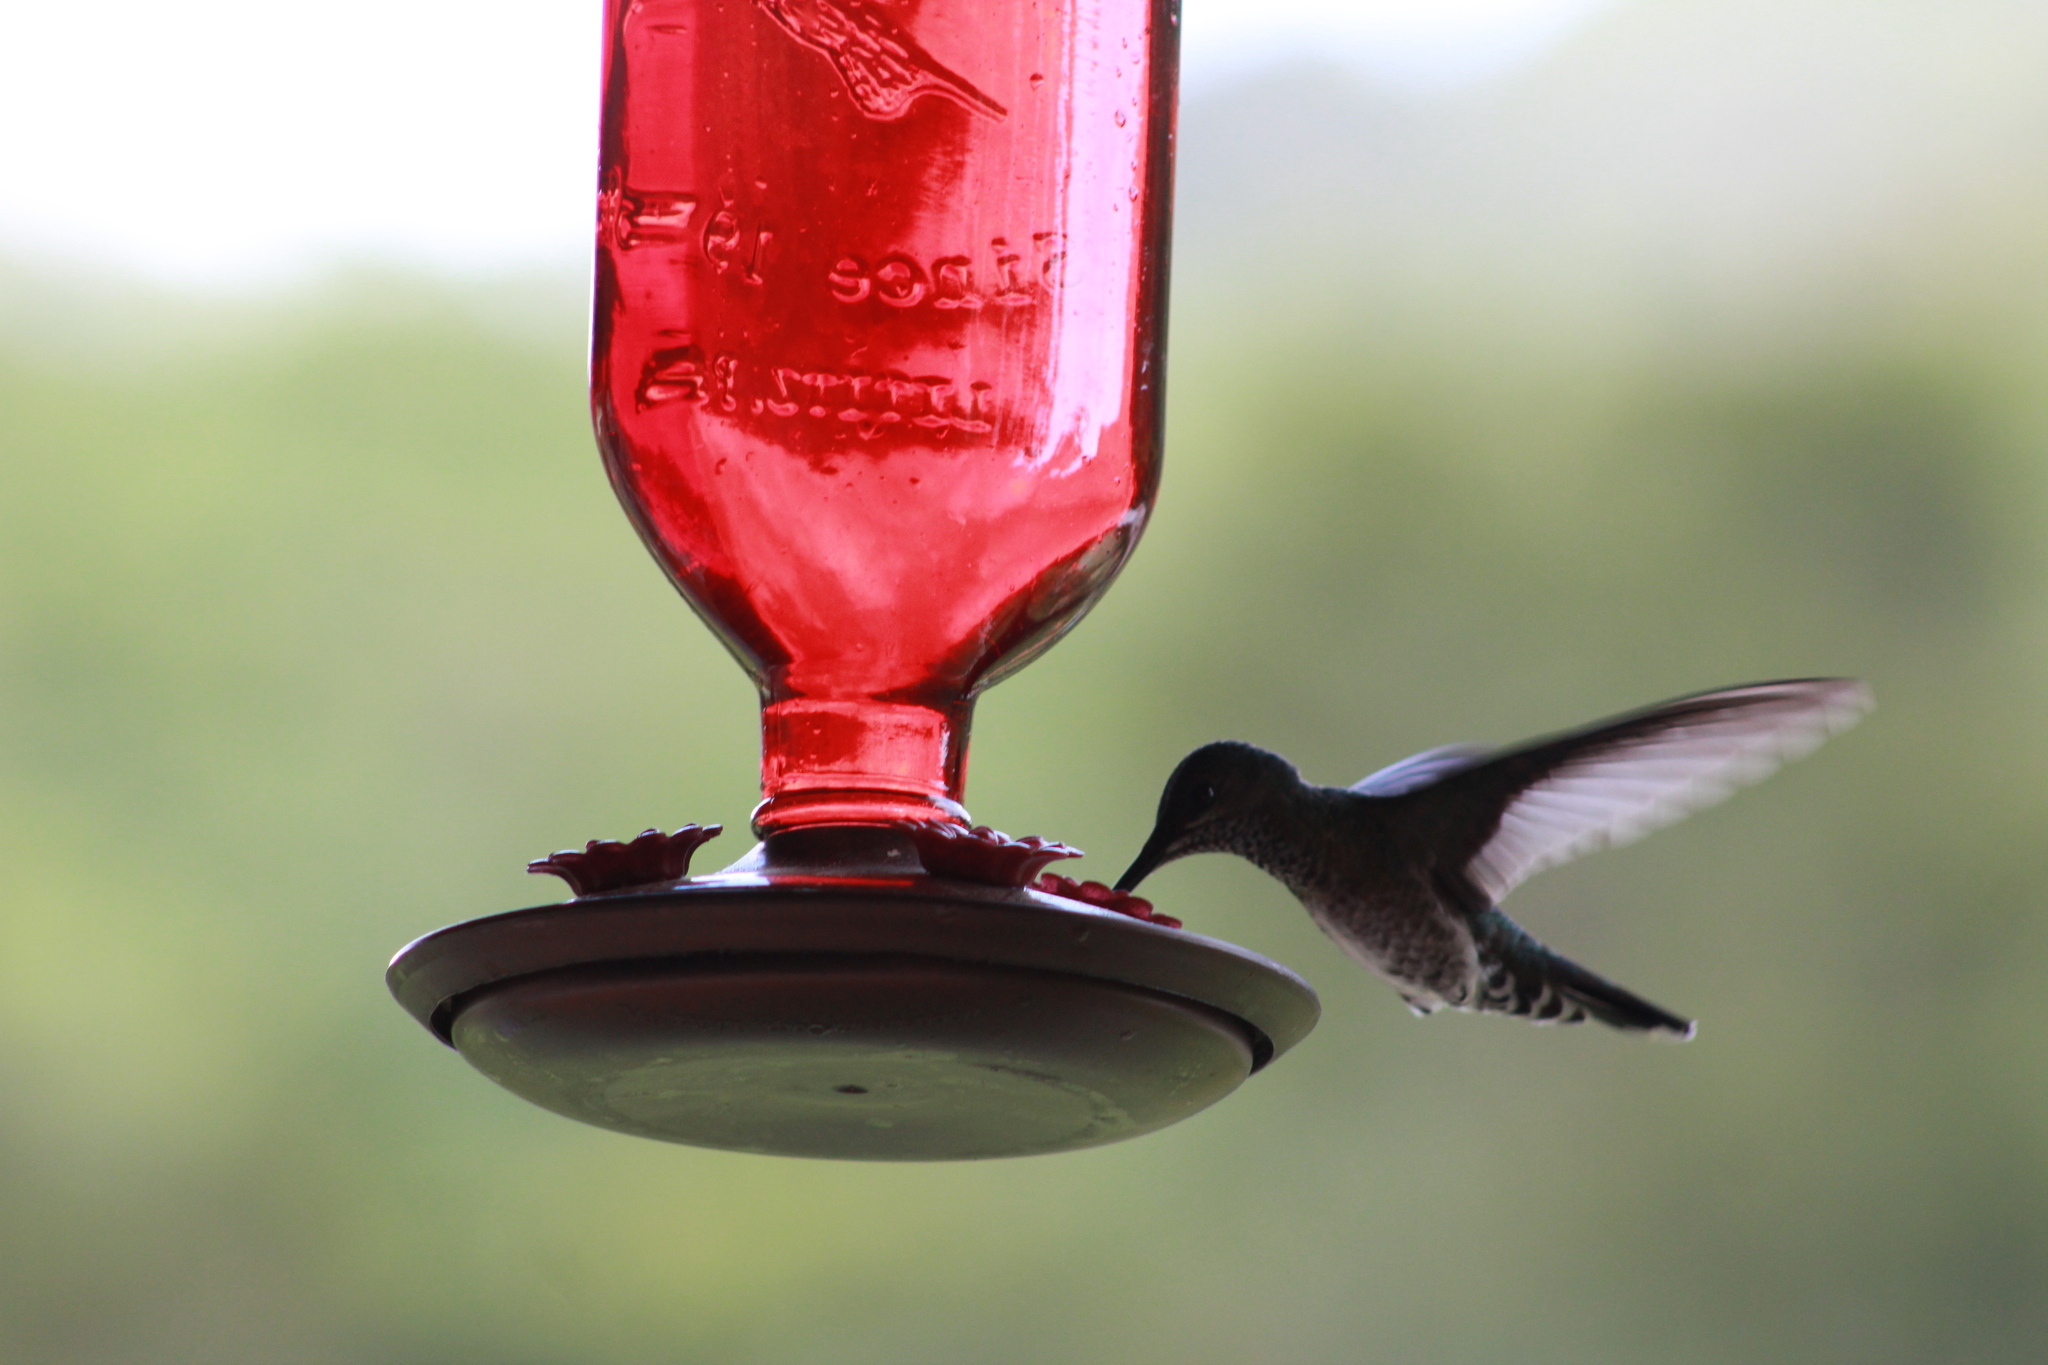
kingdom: Animalia
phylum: Chordata
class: Aves
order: Apodiformes
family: Trochilidae
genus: Florisuga
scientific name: Florisuga mellivora
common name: White-necked jacobin
